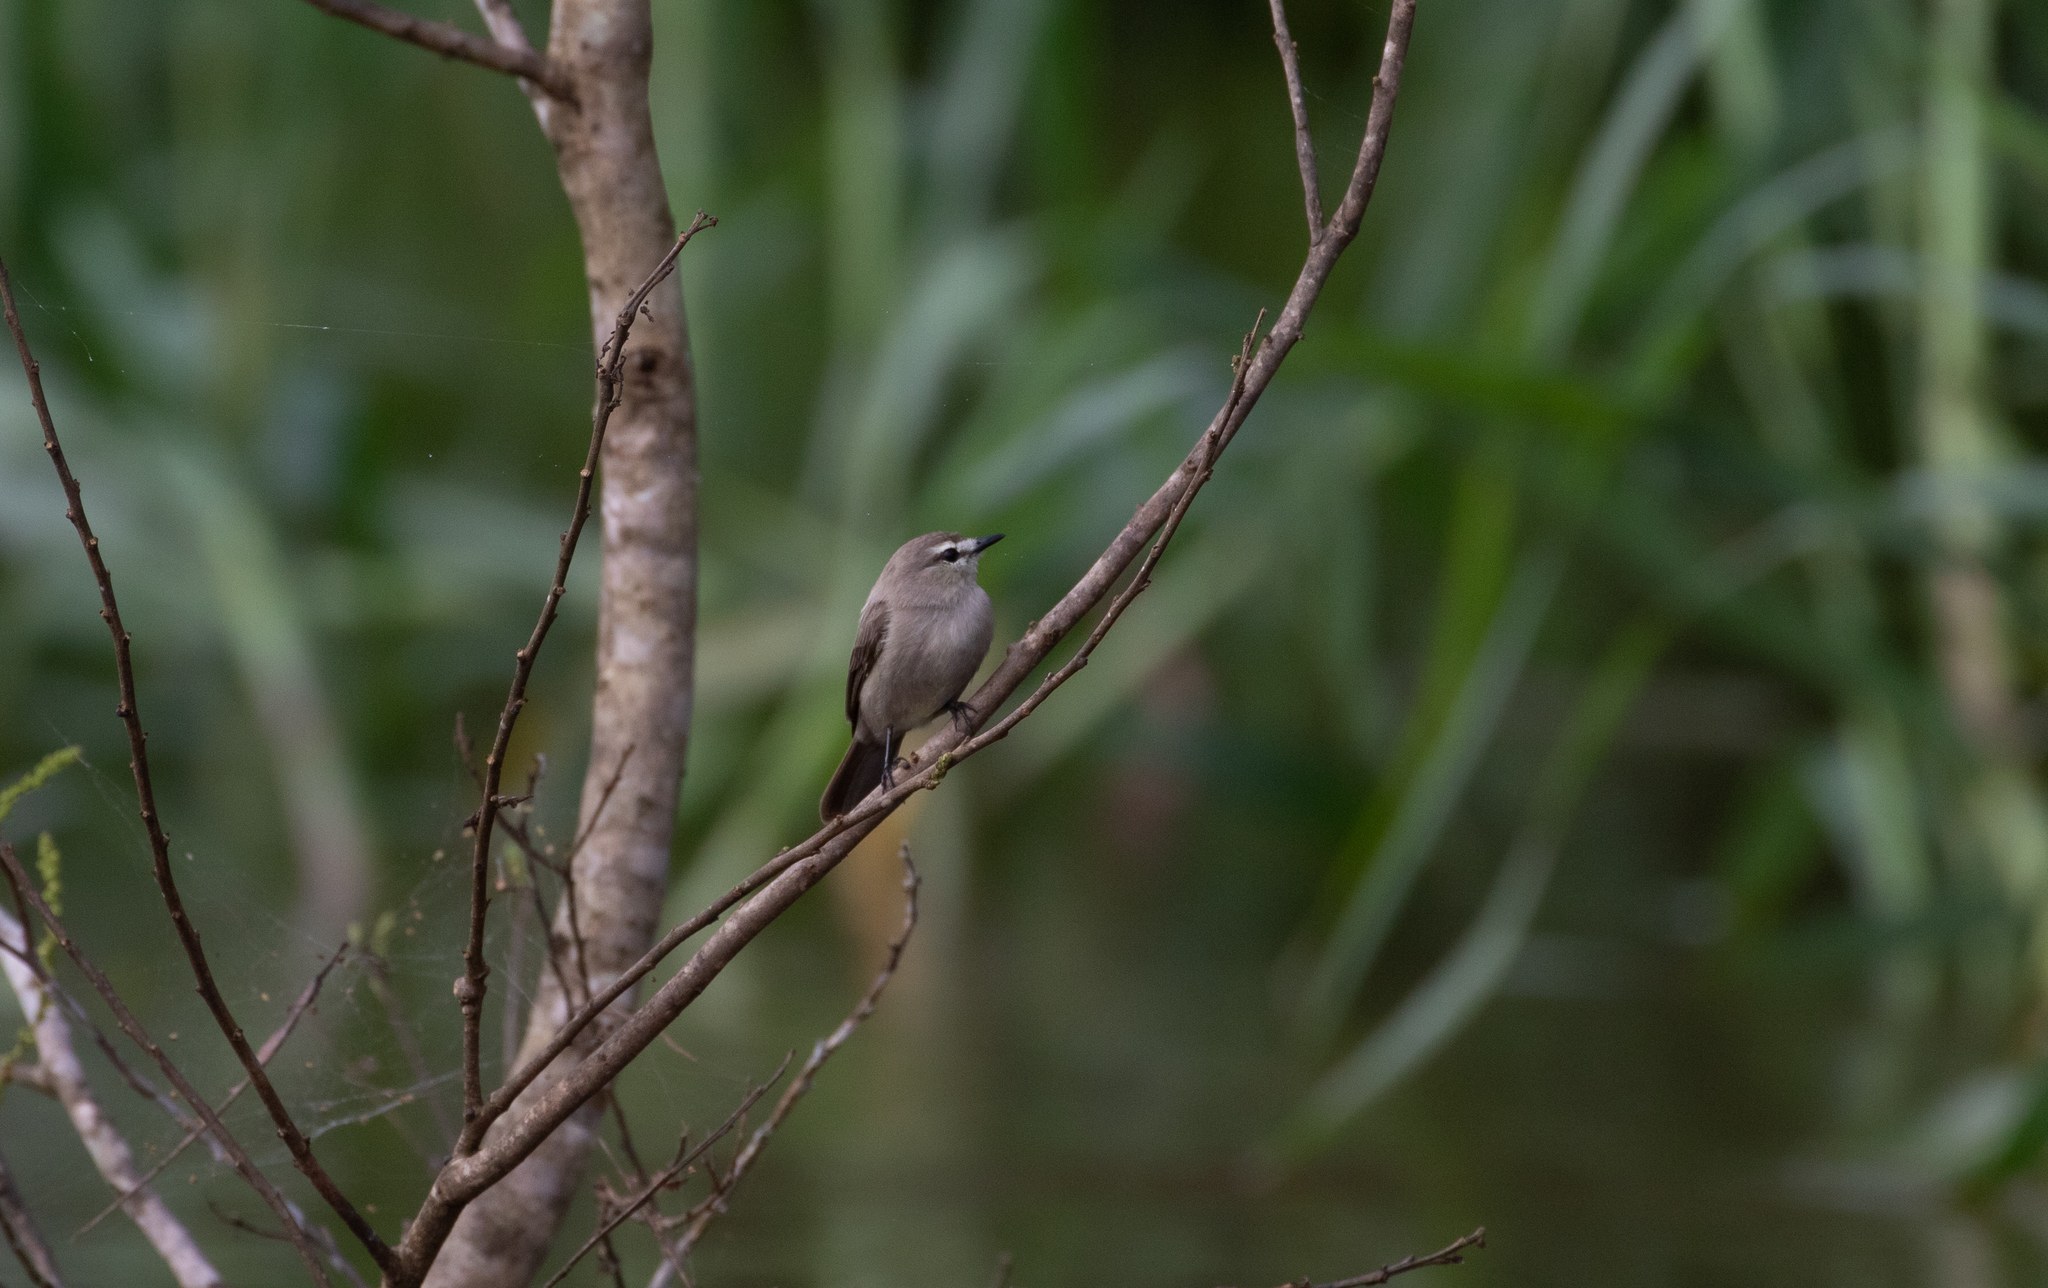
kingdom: Animalia
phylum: Chordata
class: Aves
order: Passeriformes
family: Tyrannidae
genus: Ochthornis
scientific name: Ochthornis littoralis
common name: Drab water tyrant
